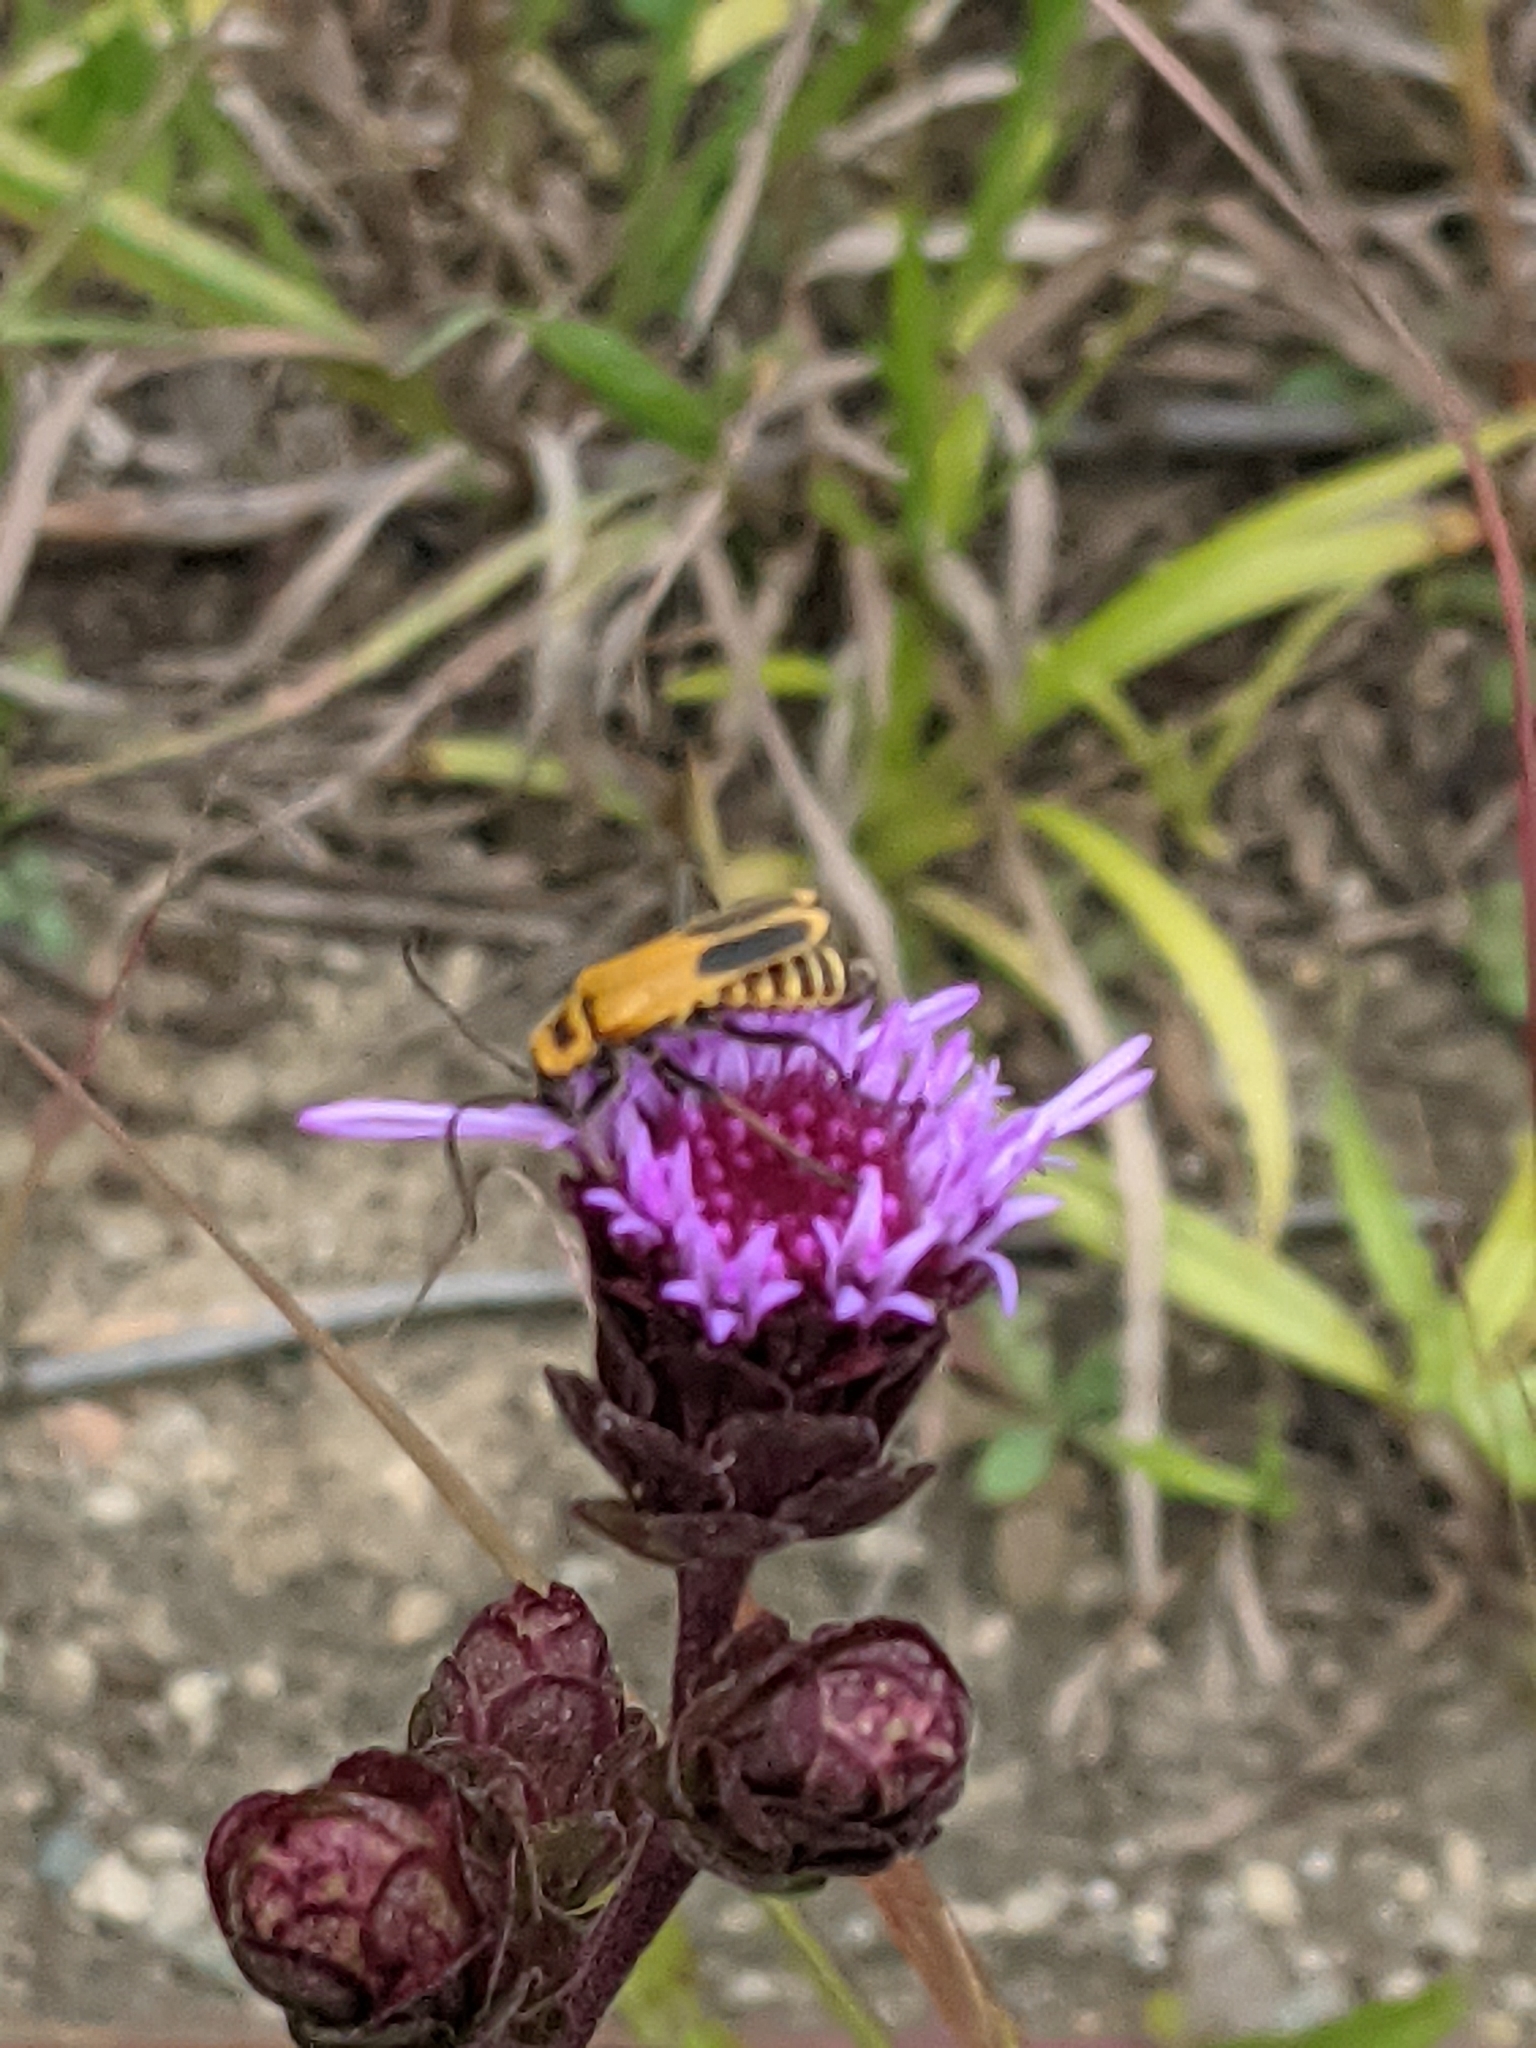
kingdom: Animalia
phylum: Arthropoda
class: Insecta
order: Coleoptera
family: Cantharidae
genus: Chauliognathus
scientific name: Chauliognathus pensylvanicus
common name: Goldenrod soldier beetle
